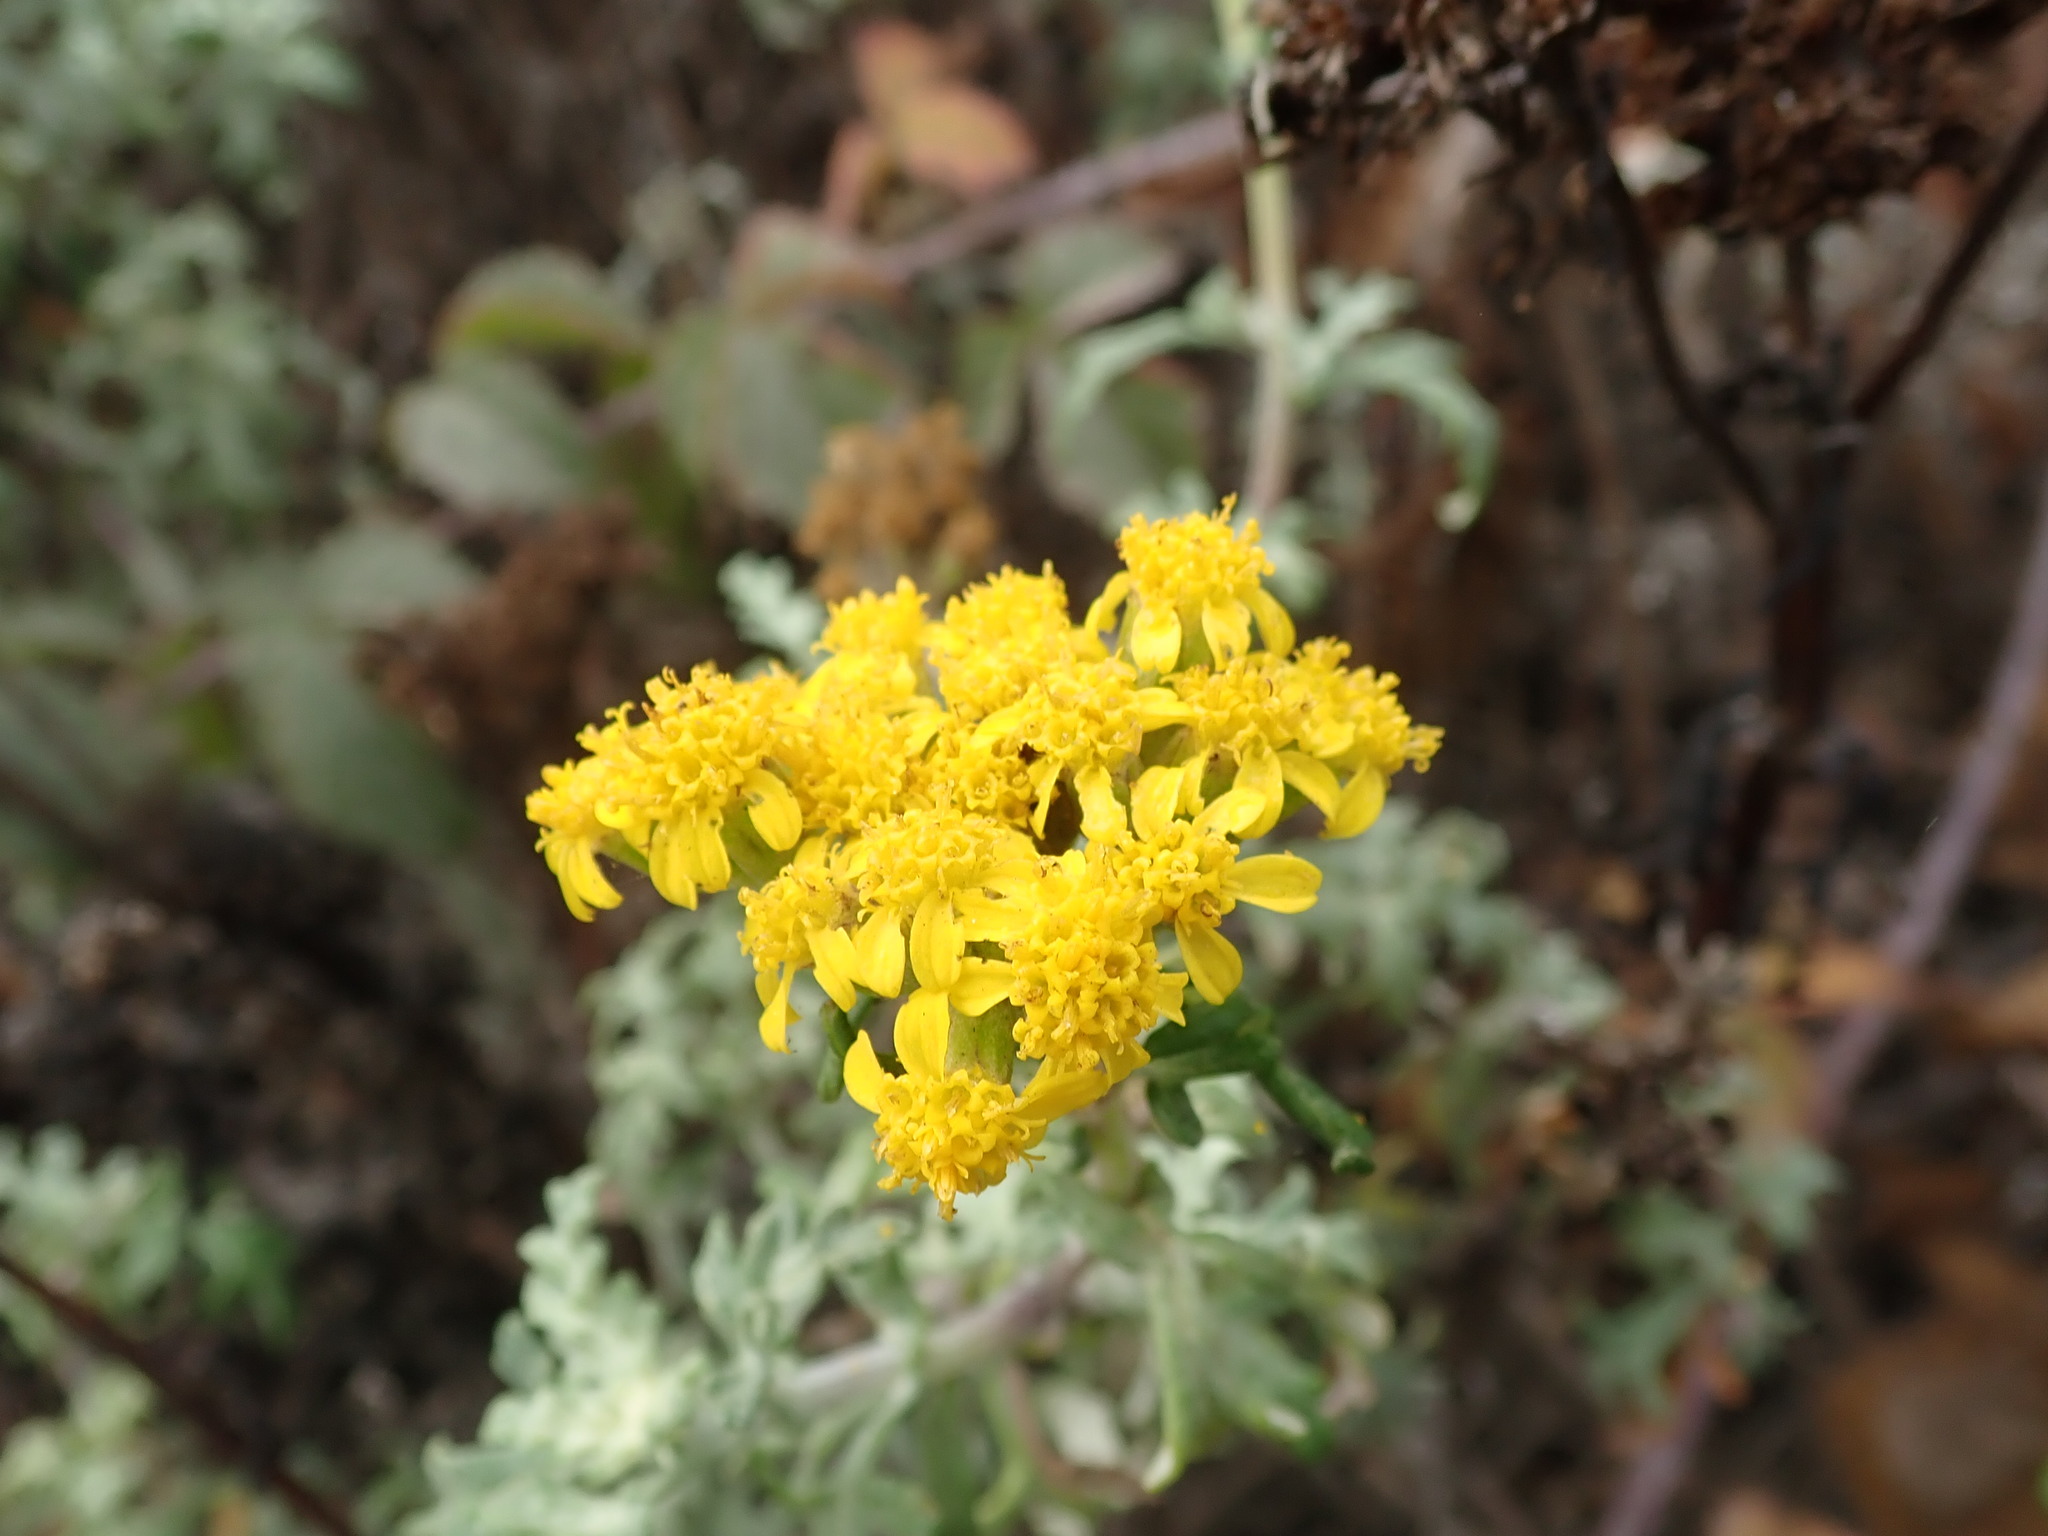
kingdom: Plantae
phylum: Tracheophyta
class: Magnoliopsida
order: Asterales
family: Asteraceae
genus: Eriophyllum
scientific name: Eriophyllum staechadifolium
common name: Lizardtail
